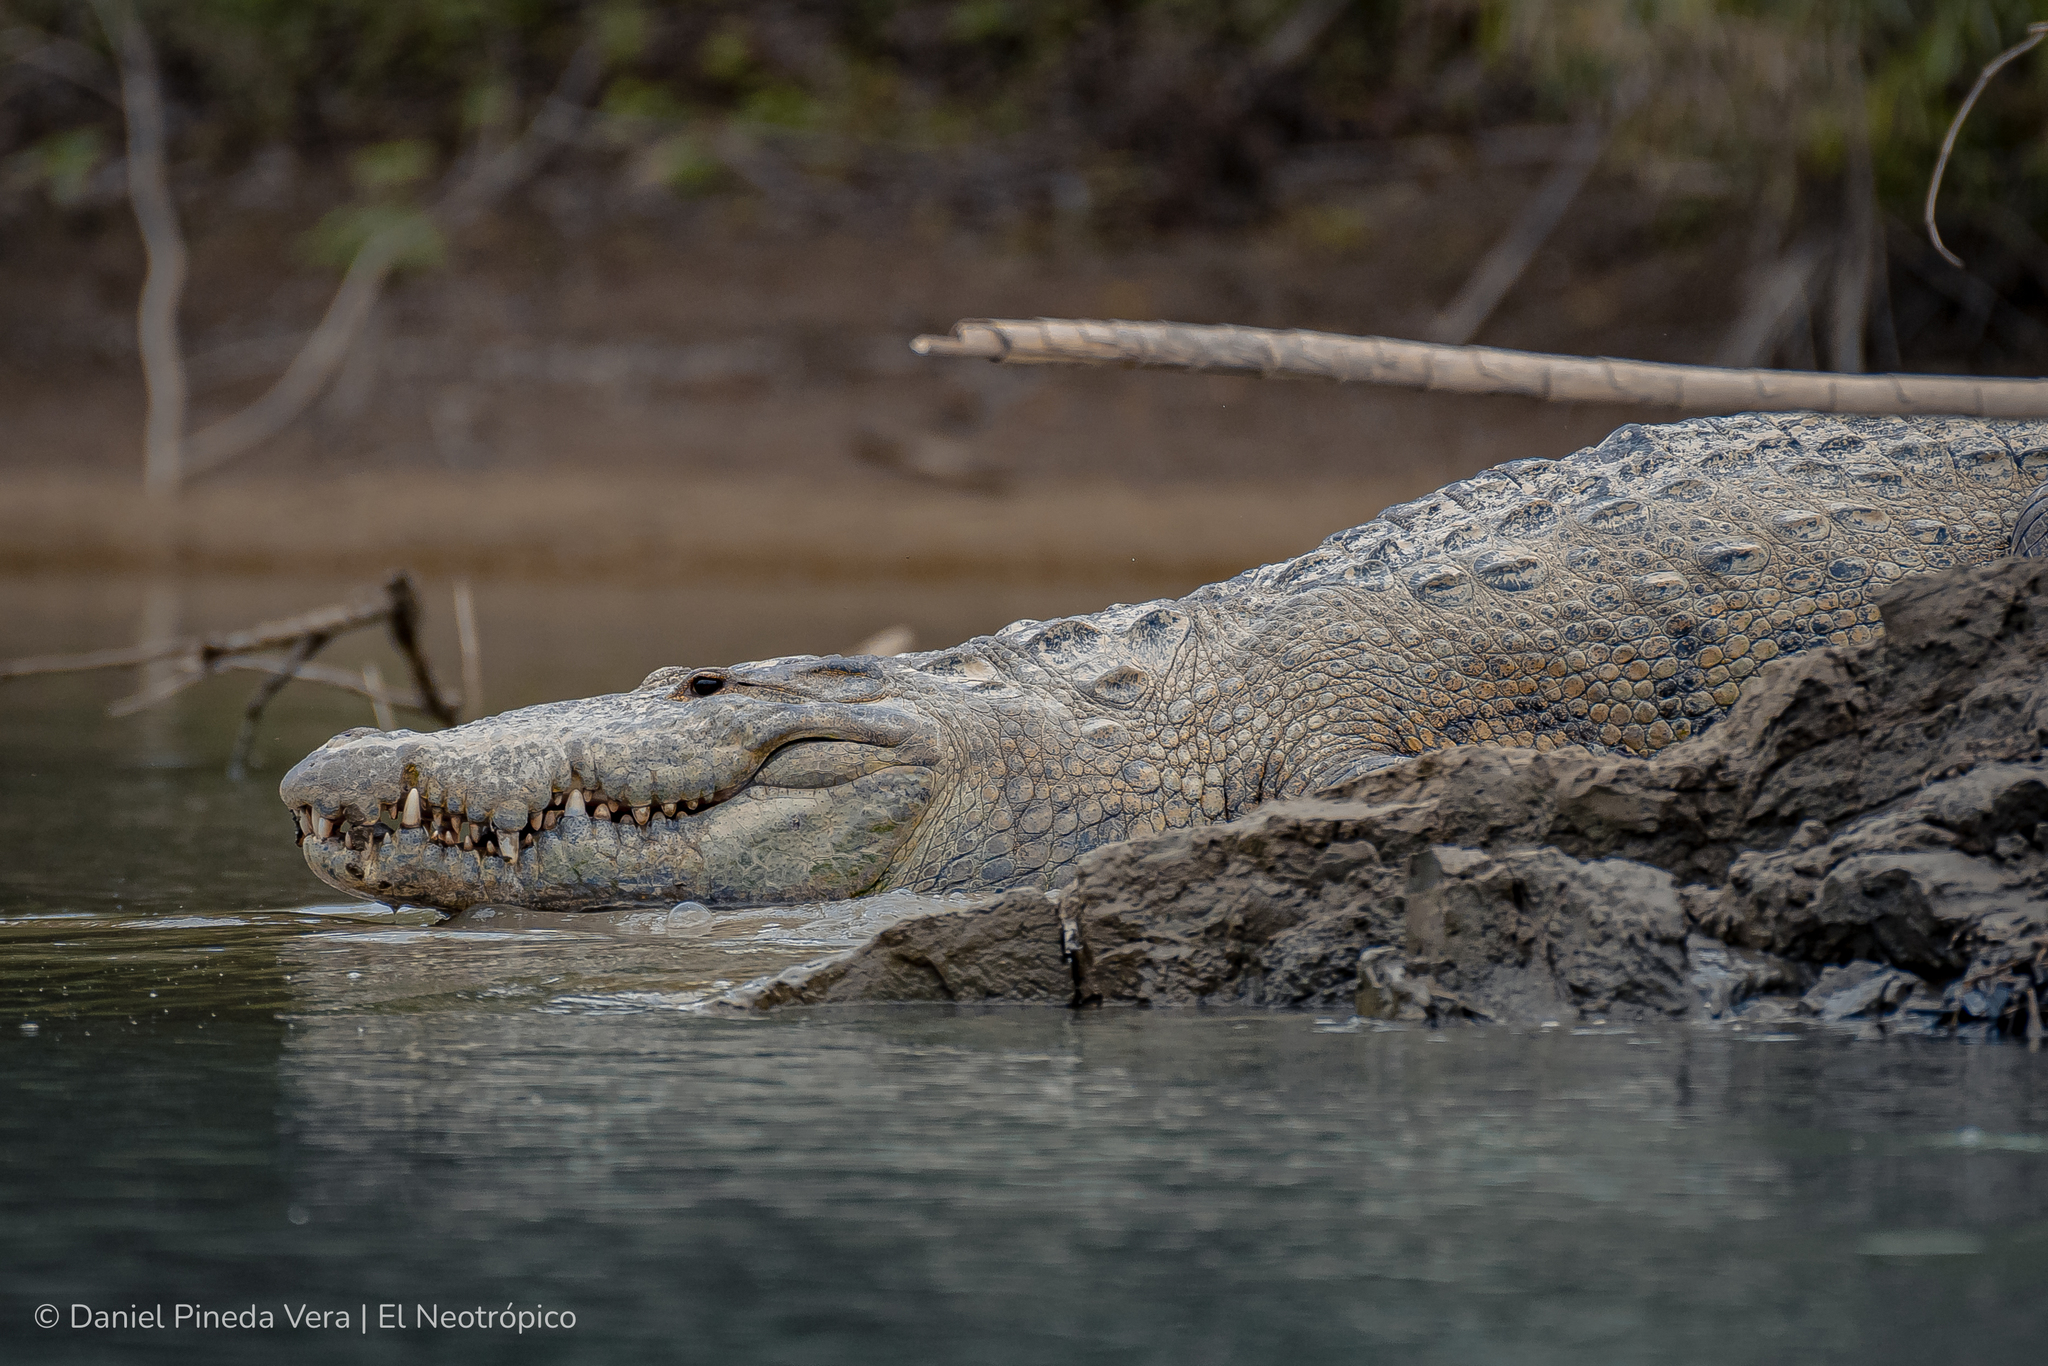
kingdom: Animalia
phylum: Chordata
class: Crocodylia
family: Crocodylidae
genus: Crocodylus
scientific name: Crocodylus moreletii
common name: Morelet's crocodile
